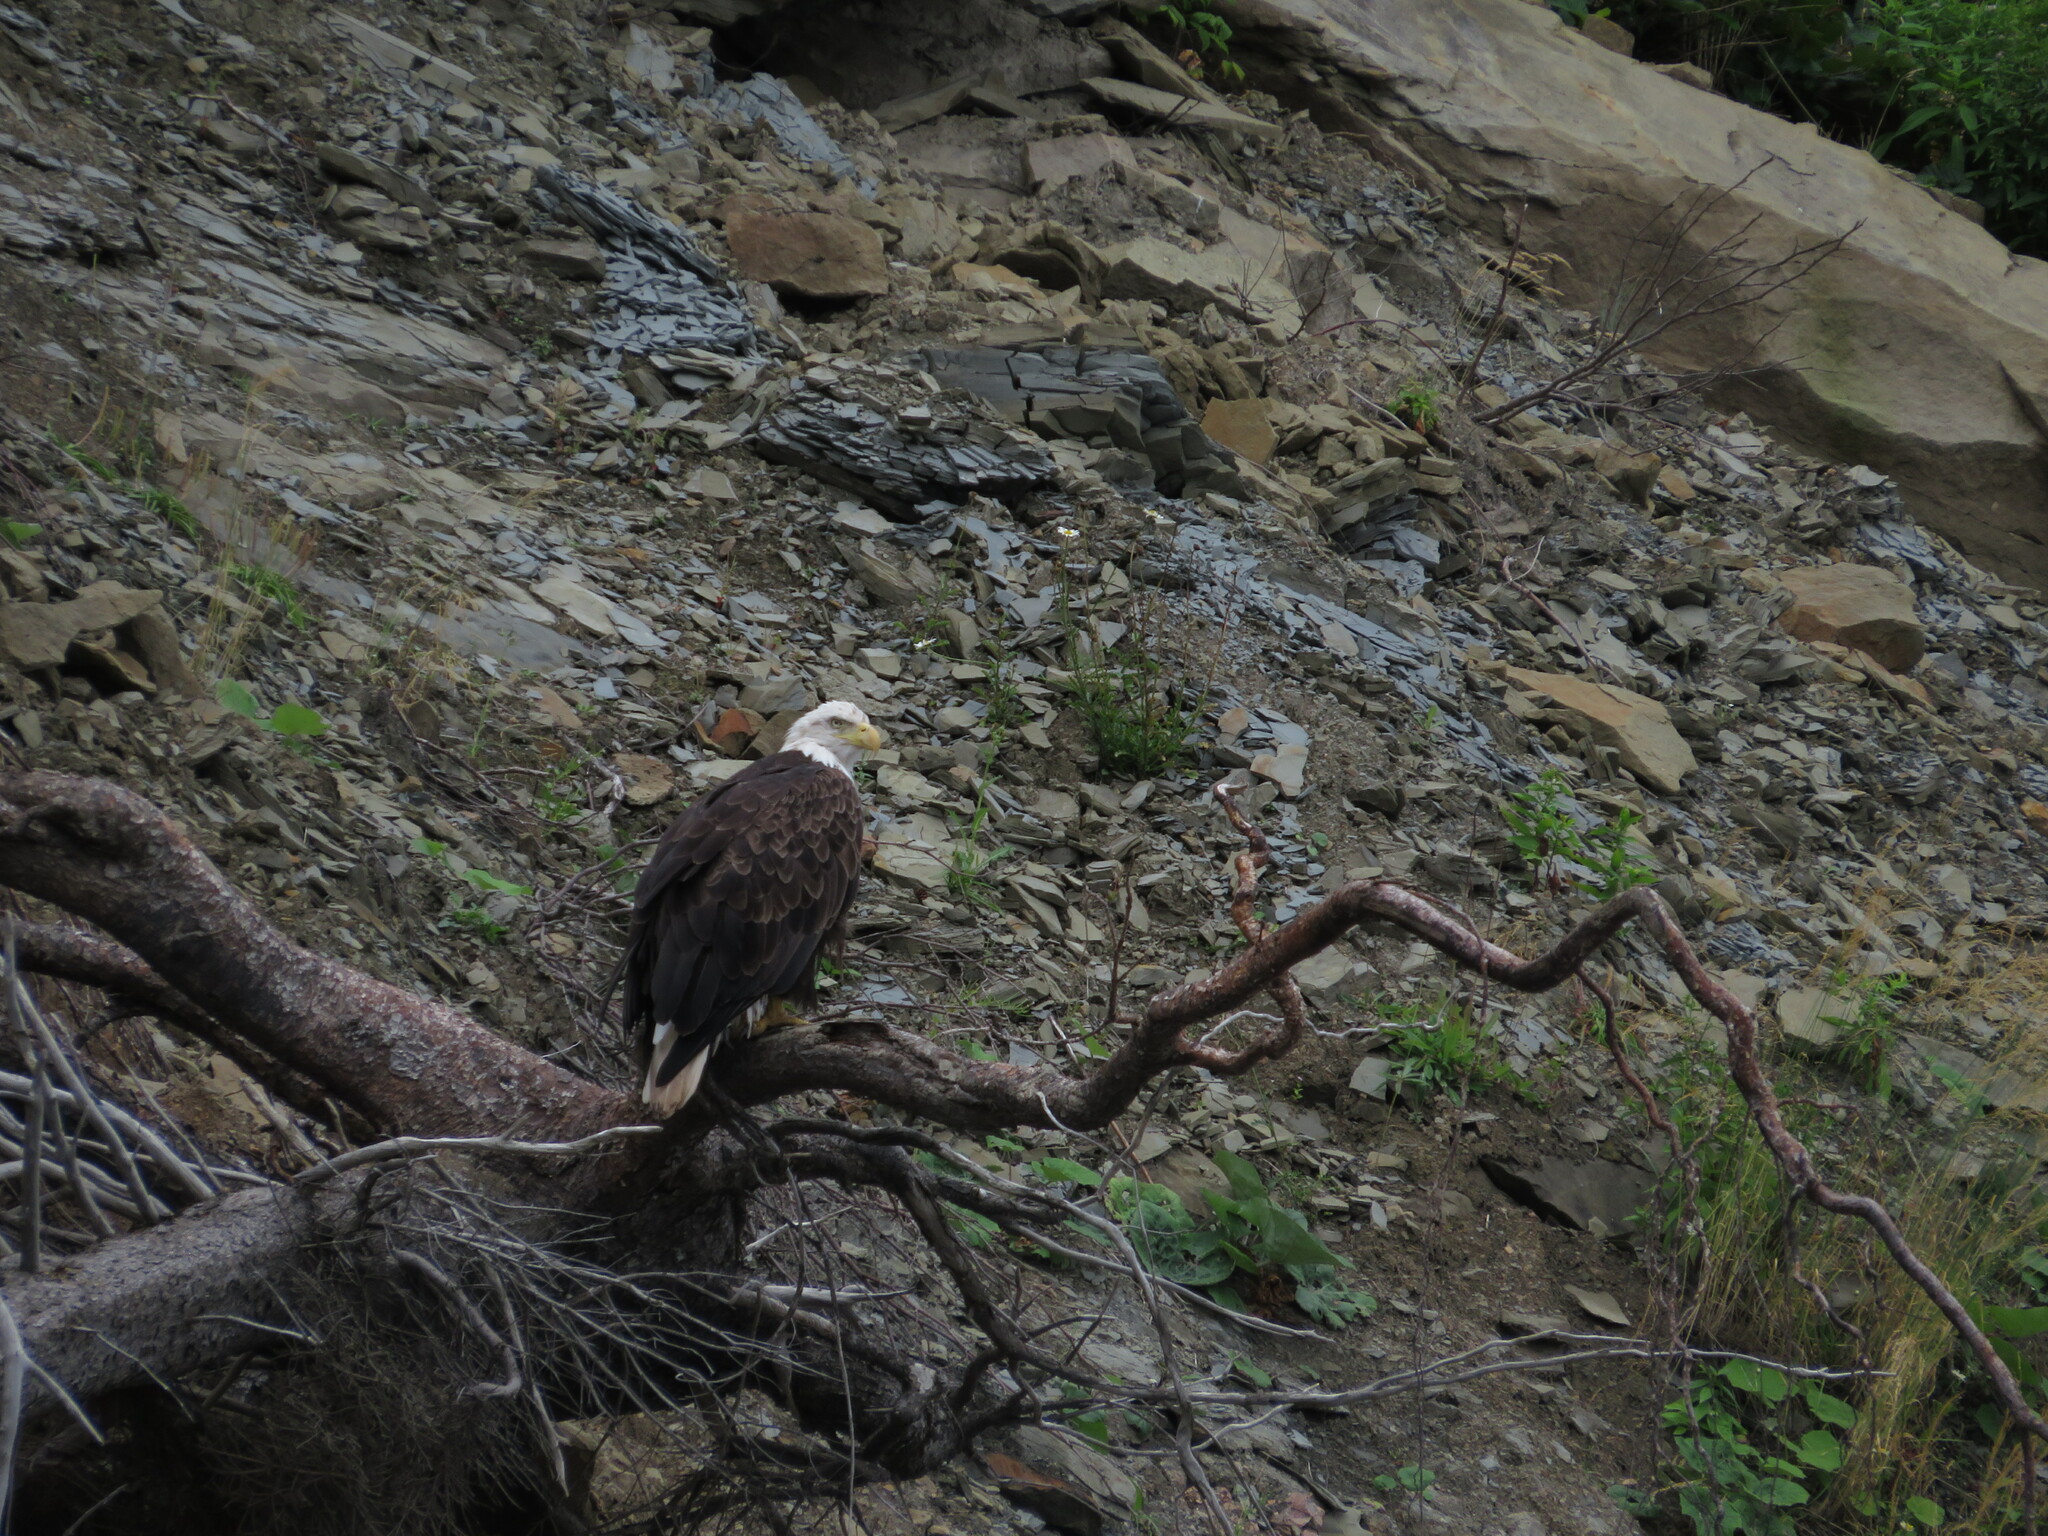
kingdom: Animalia
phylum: Chordata
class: Aves
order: Accipitriformes
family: Accipitridae
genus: Haliaeetus
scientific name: Haliaeetus leucocephalus
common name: Bald eagle
